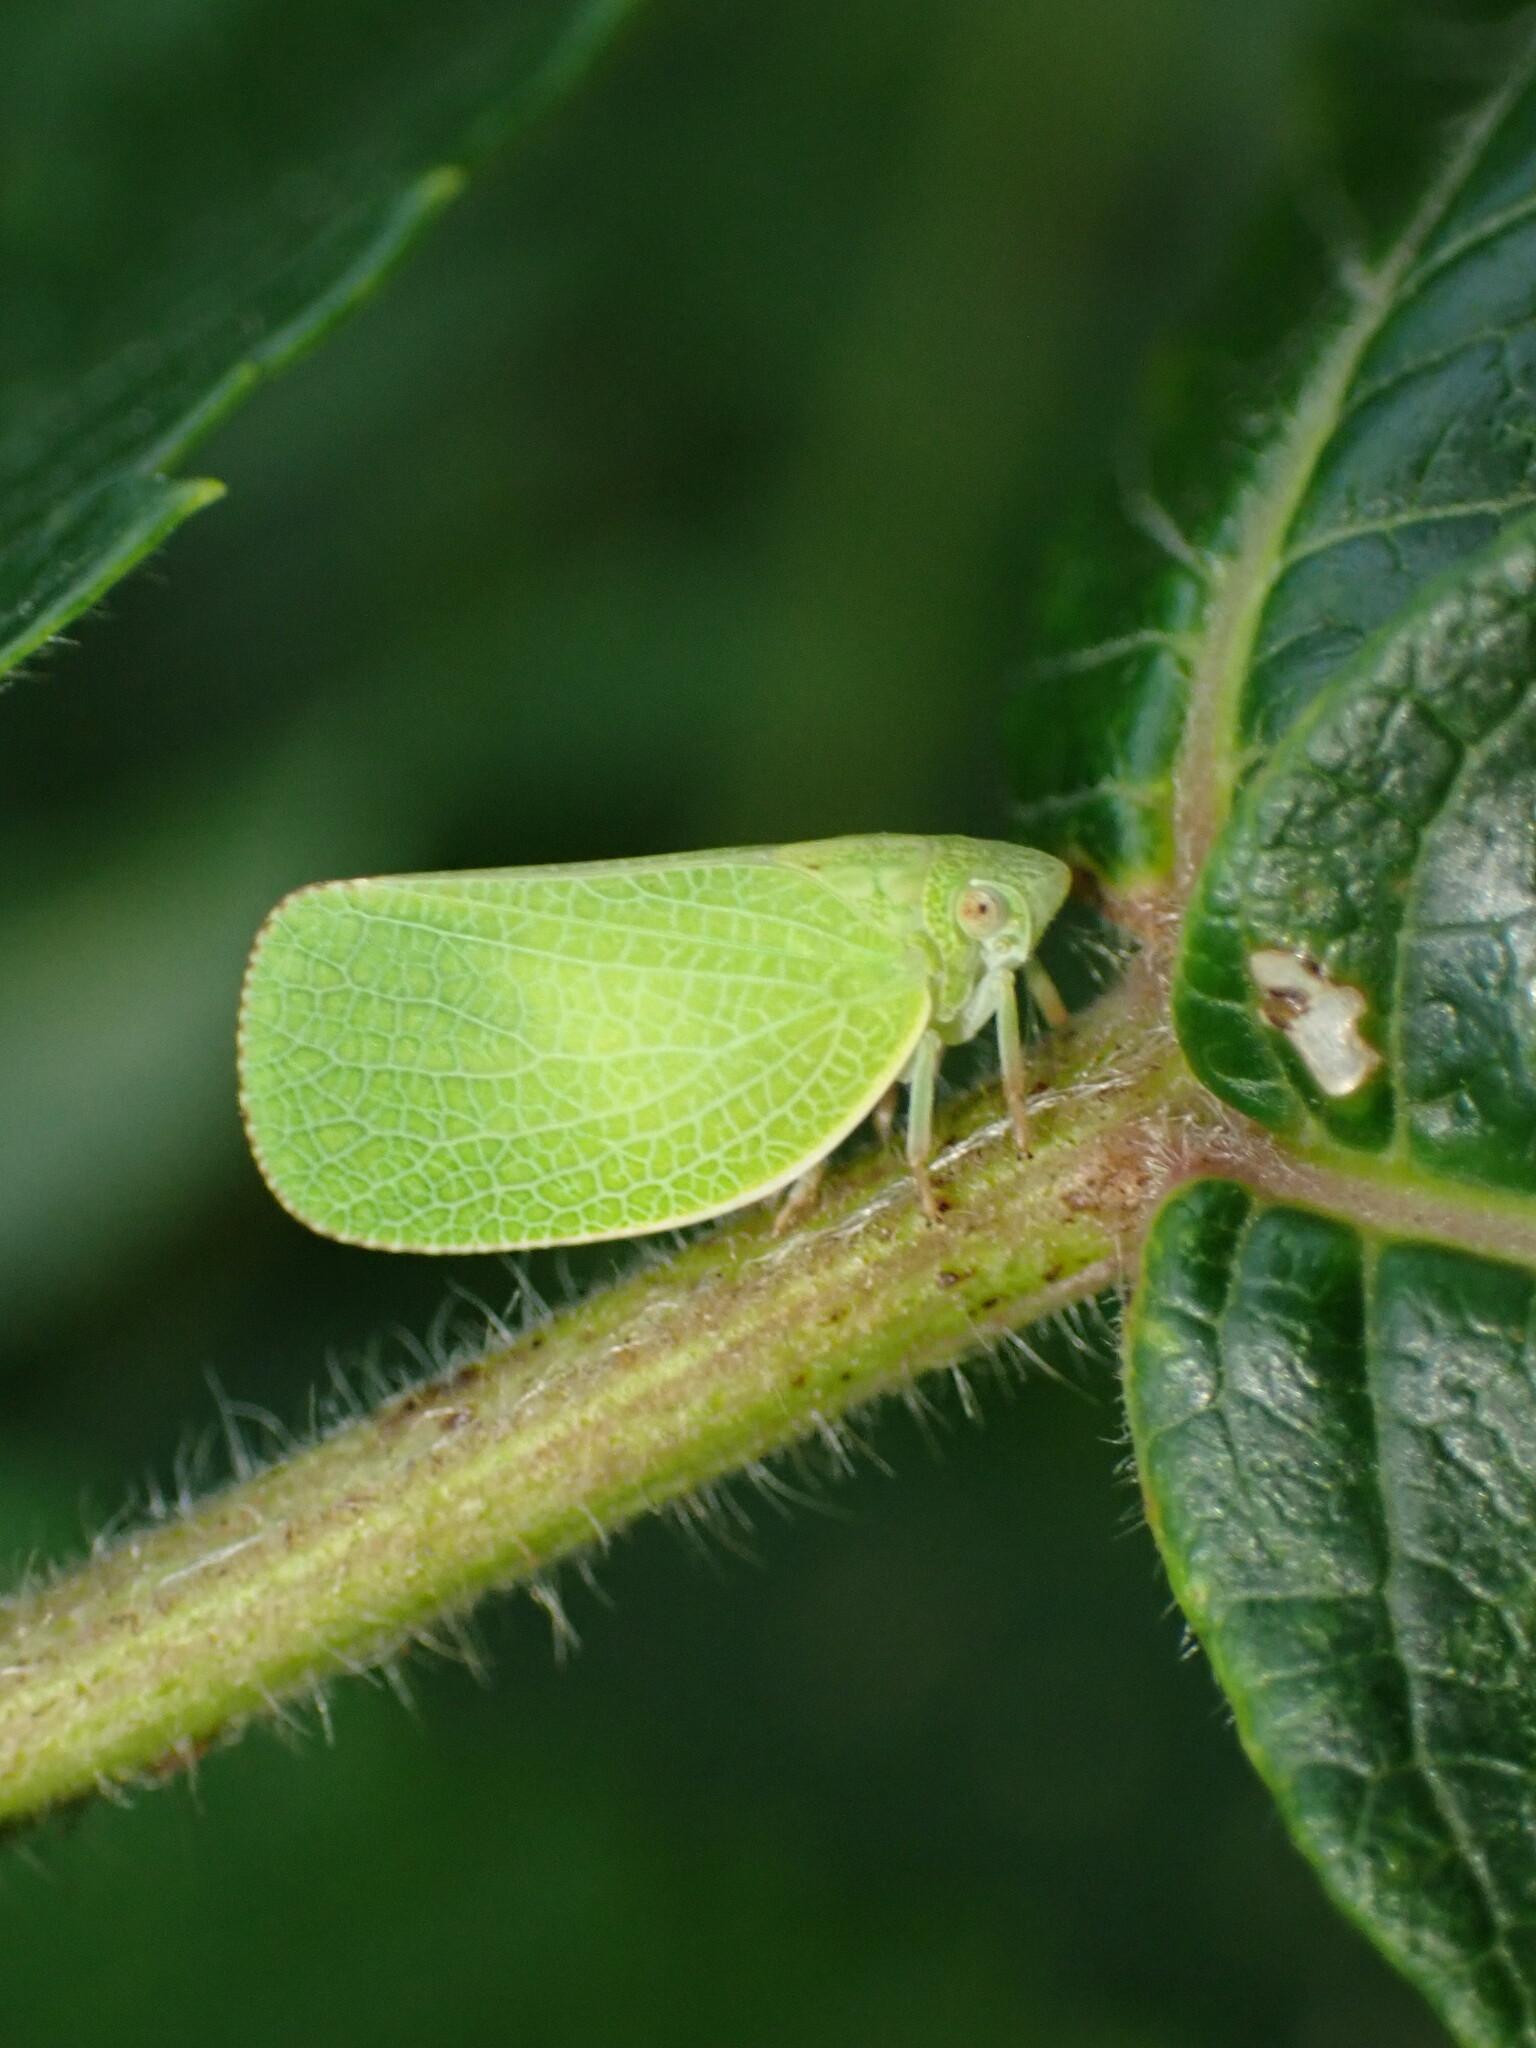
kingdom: Animalia
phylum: Arthropoda
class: Insecta
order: Hemiptera
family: Acanaloniidae
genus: Acanalonia
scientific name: Acanalonia conica
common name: Green cone-headed planthopper
